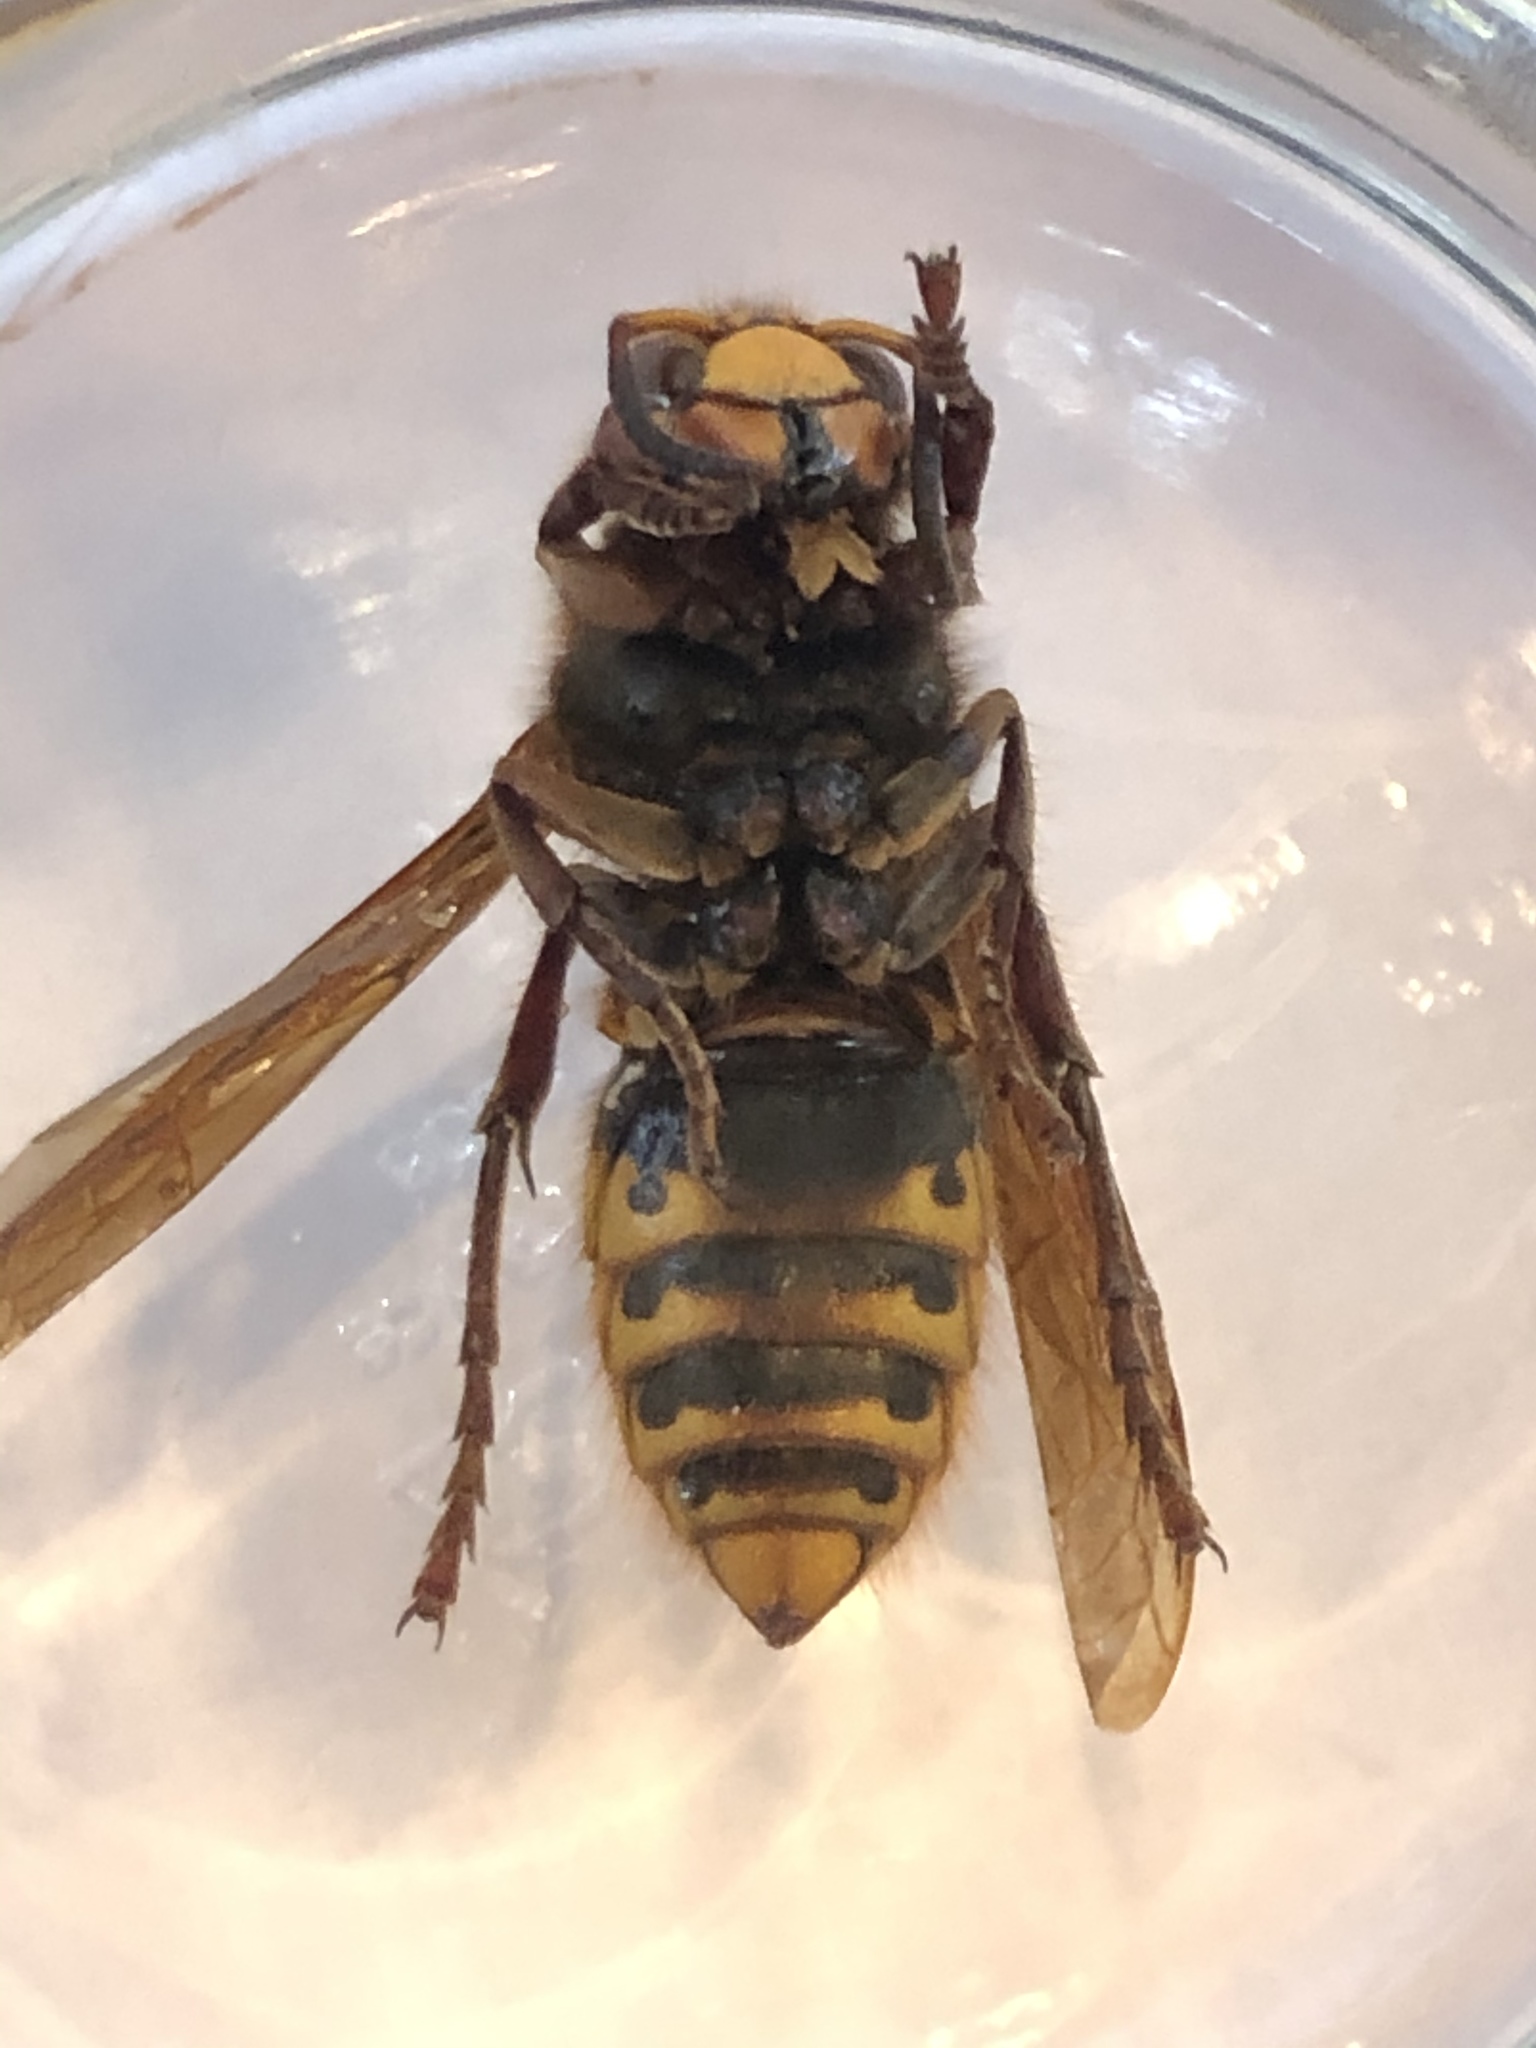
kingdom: Animalia
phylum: Arthropoda
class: Insecta
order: Hymenoptera
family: Vespidae
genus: Vespa
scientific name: Vespa crabro
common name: Hornet
